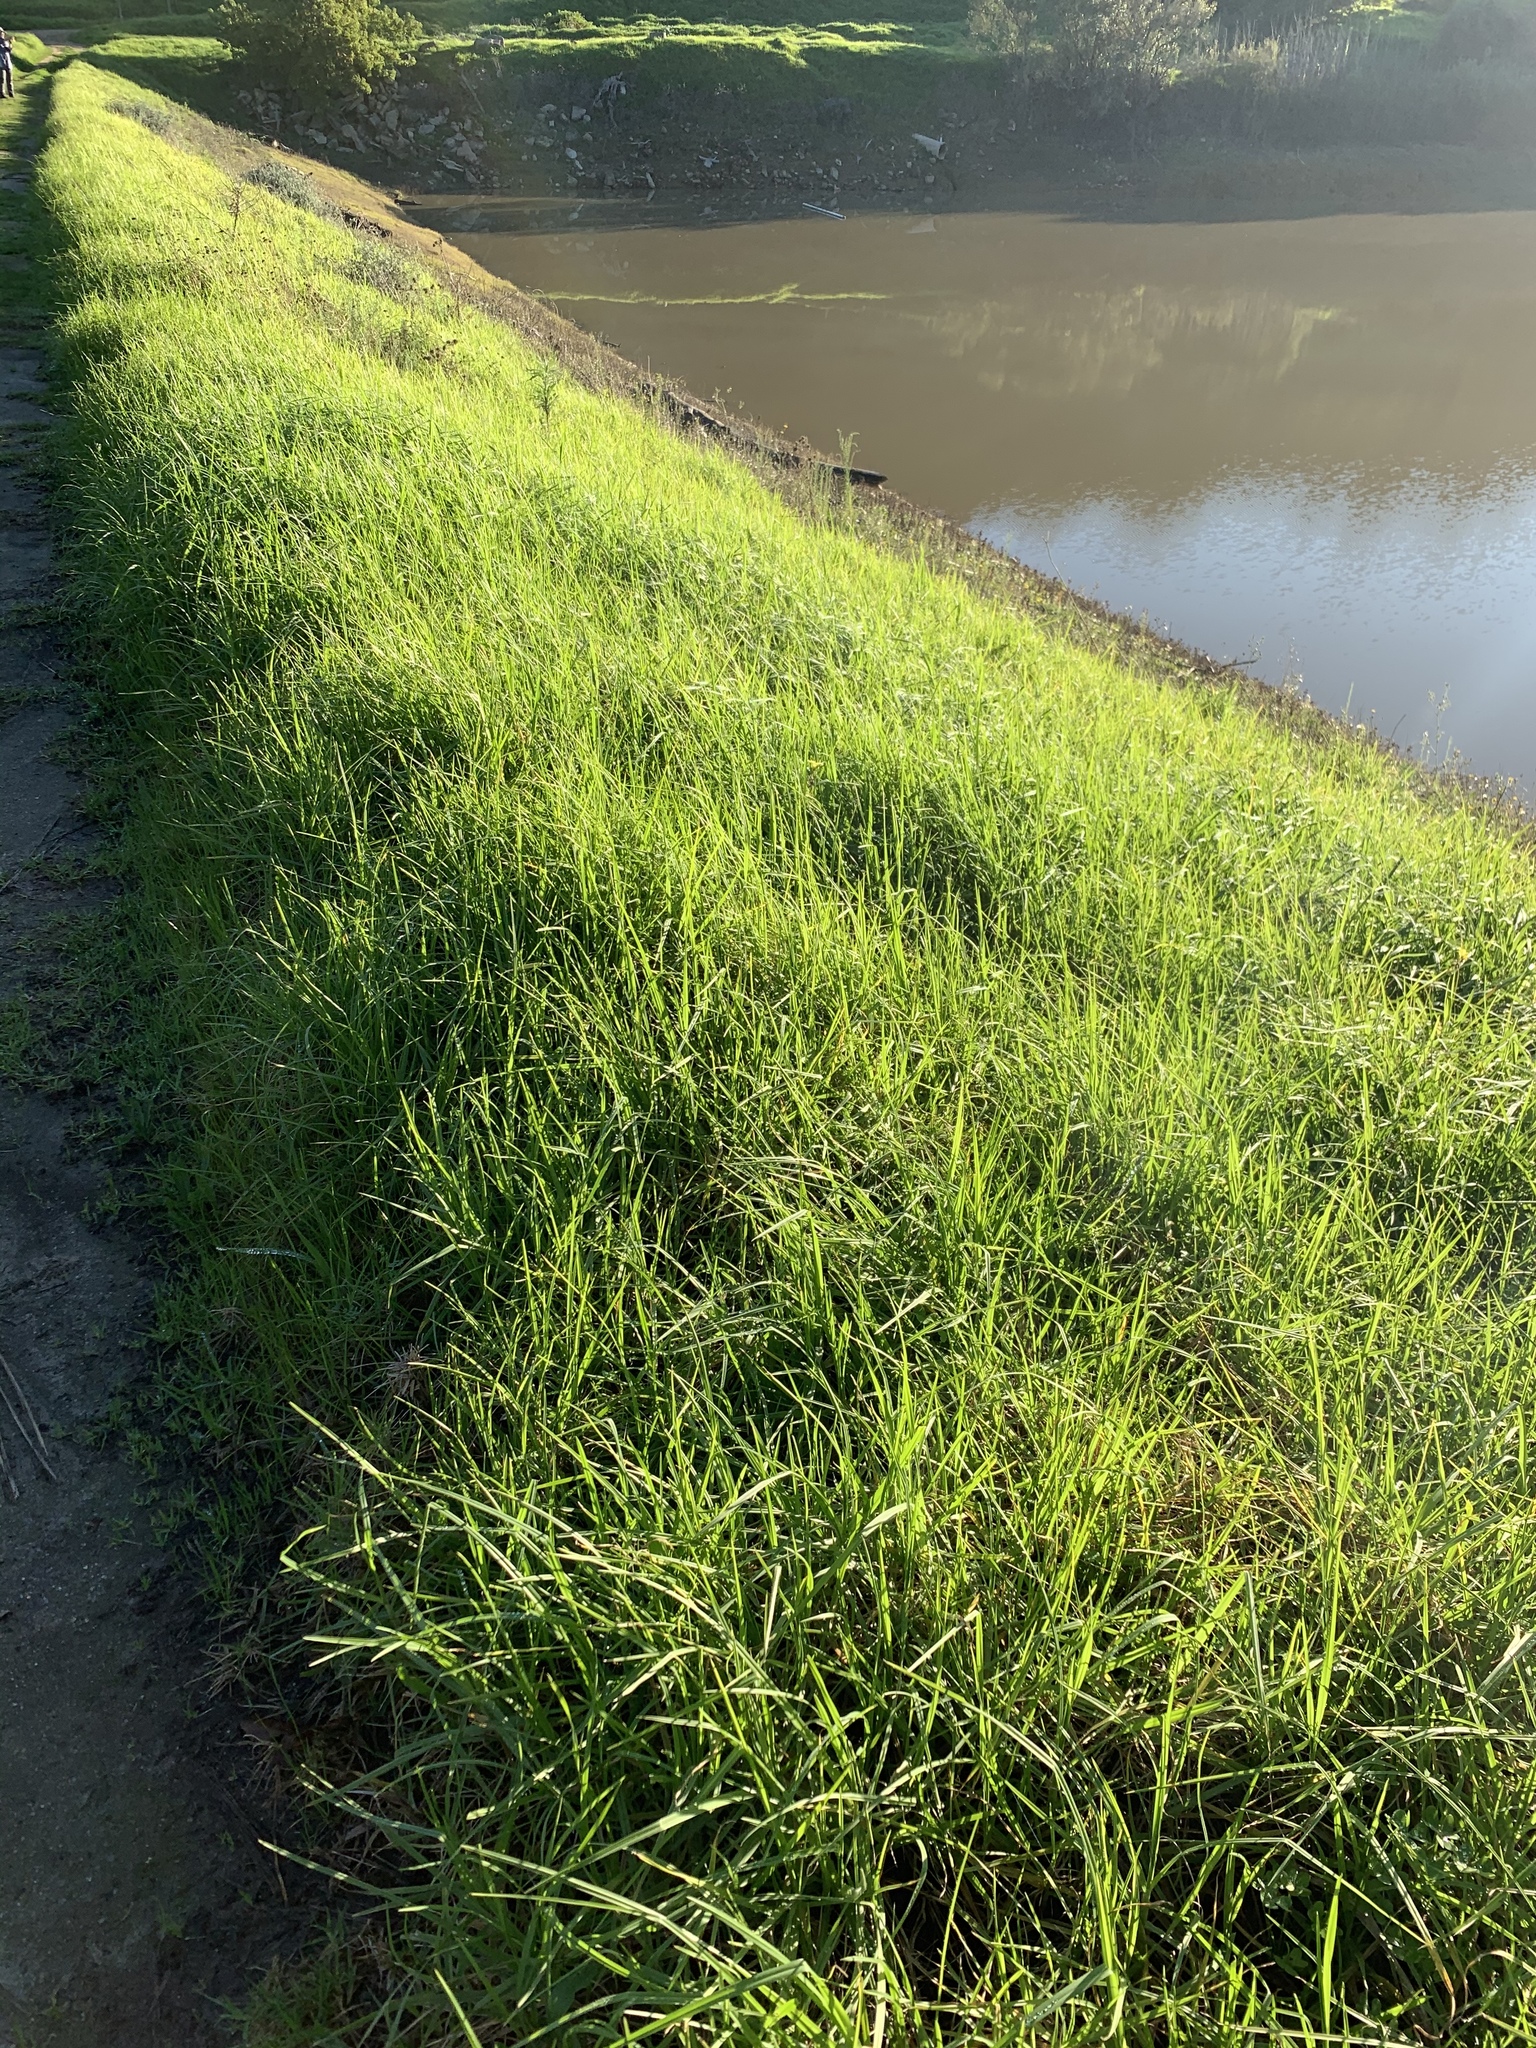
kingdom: Plantae
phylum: Tracheophyta
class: Liliopsida
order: Poales
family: Poaceae
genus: Cenchrus
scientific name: Cenchrus clandestinus
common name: Kikuyugrass
